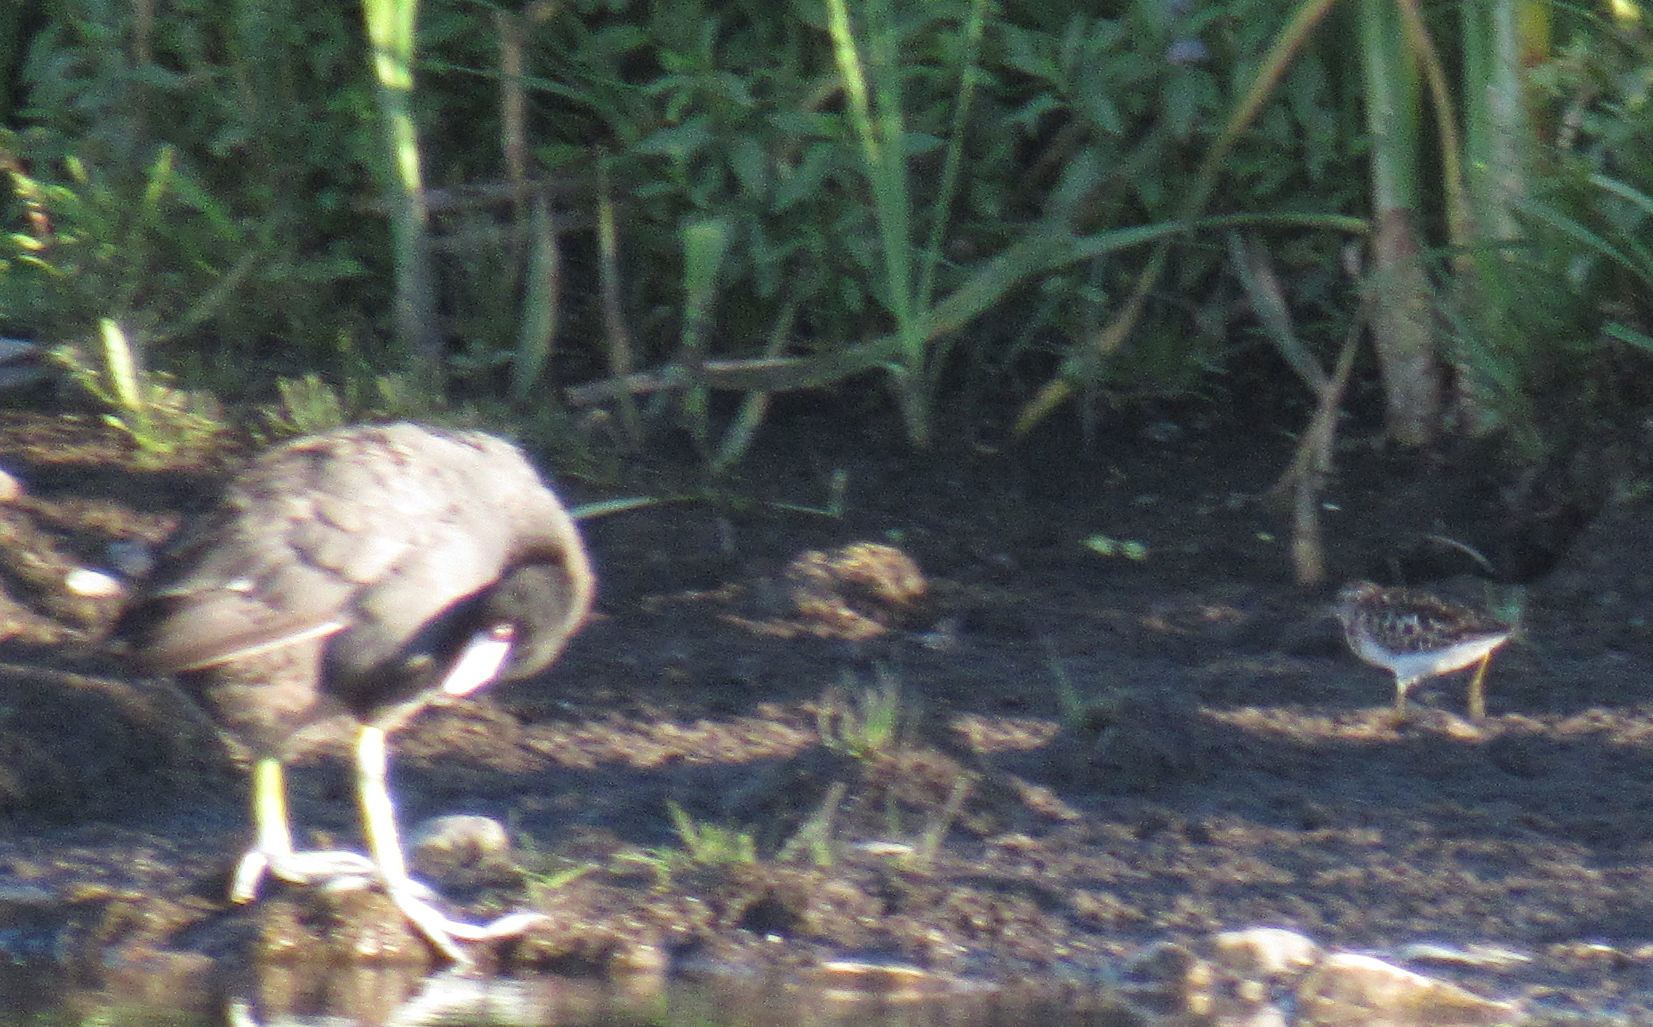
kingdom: Animalia
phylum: Chordata
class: Aves
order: Charadriiformes
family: Scolopacidae
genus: Calidris
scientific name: Calidris minutilla
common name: Least sandpiper
